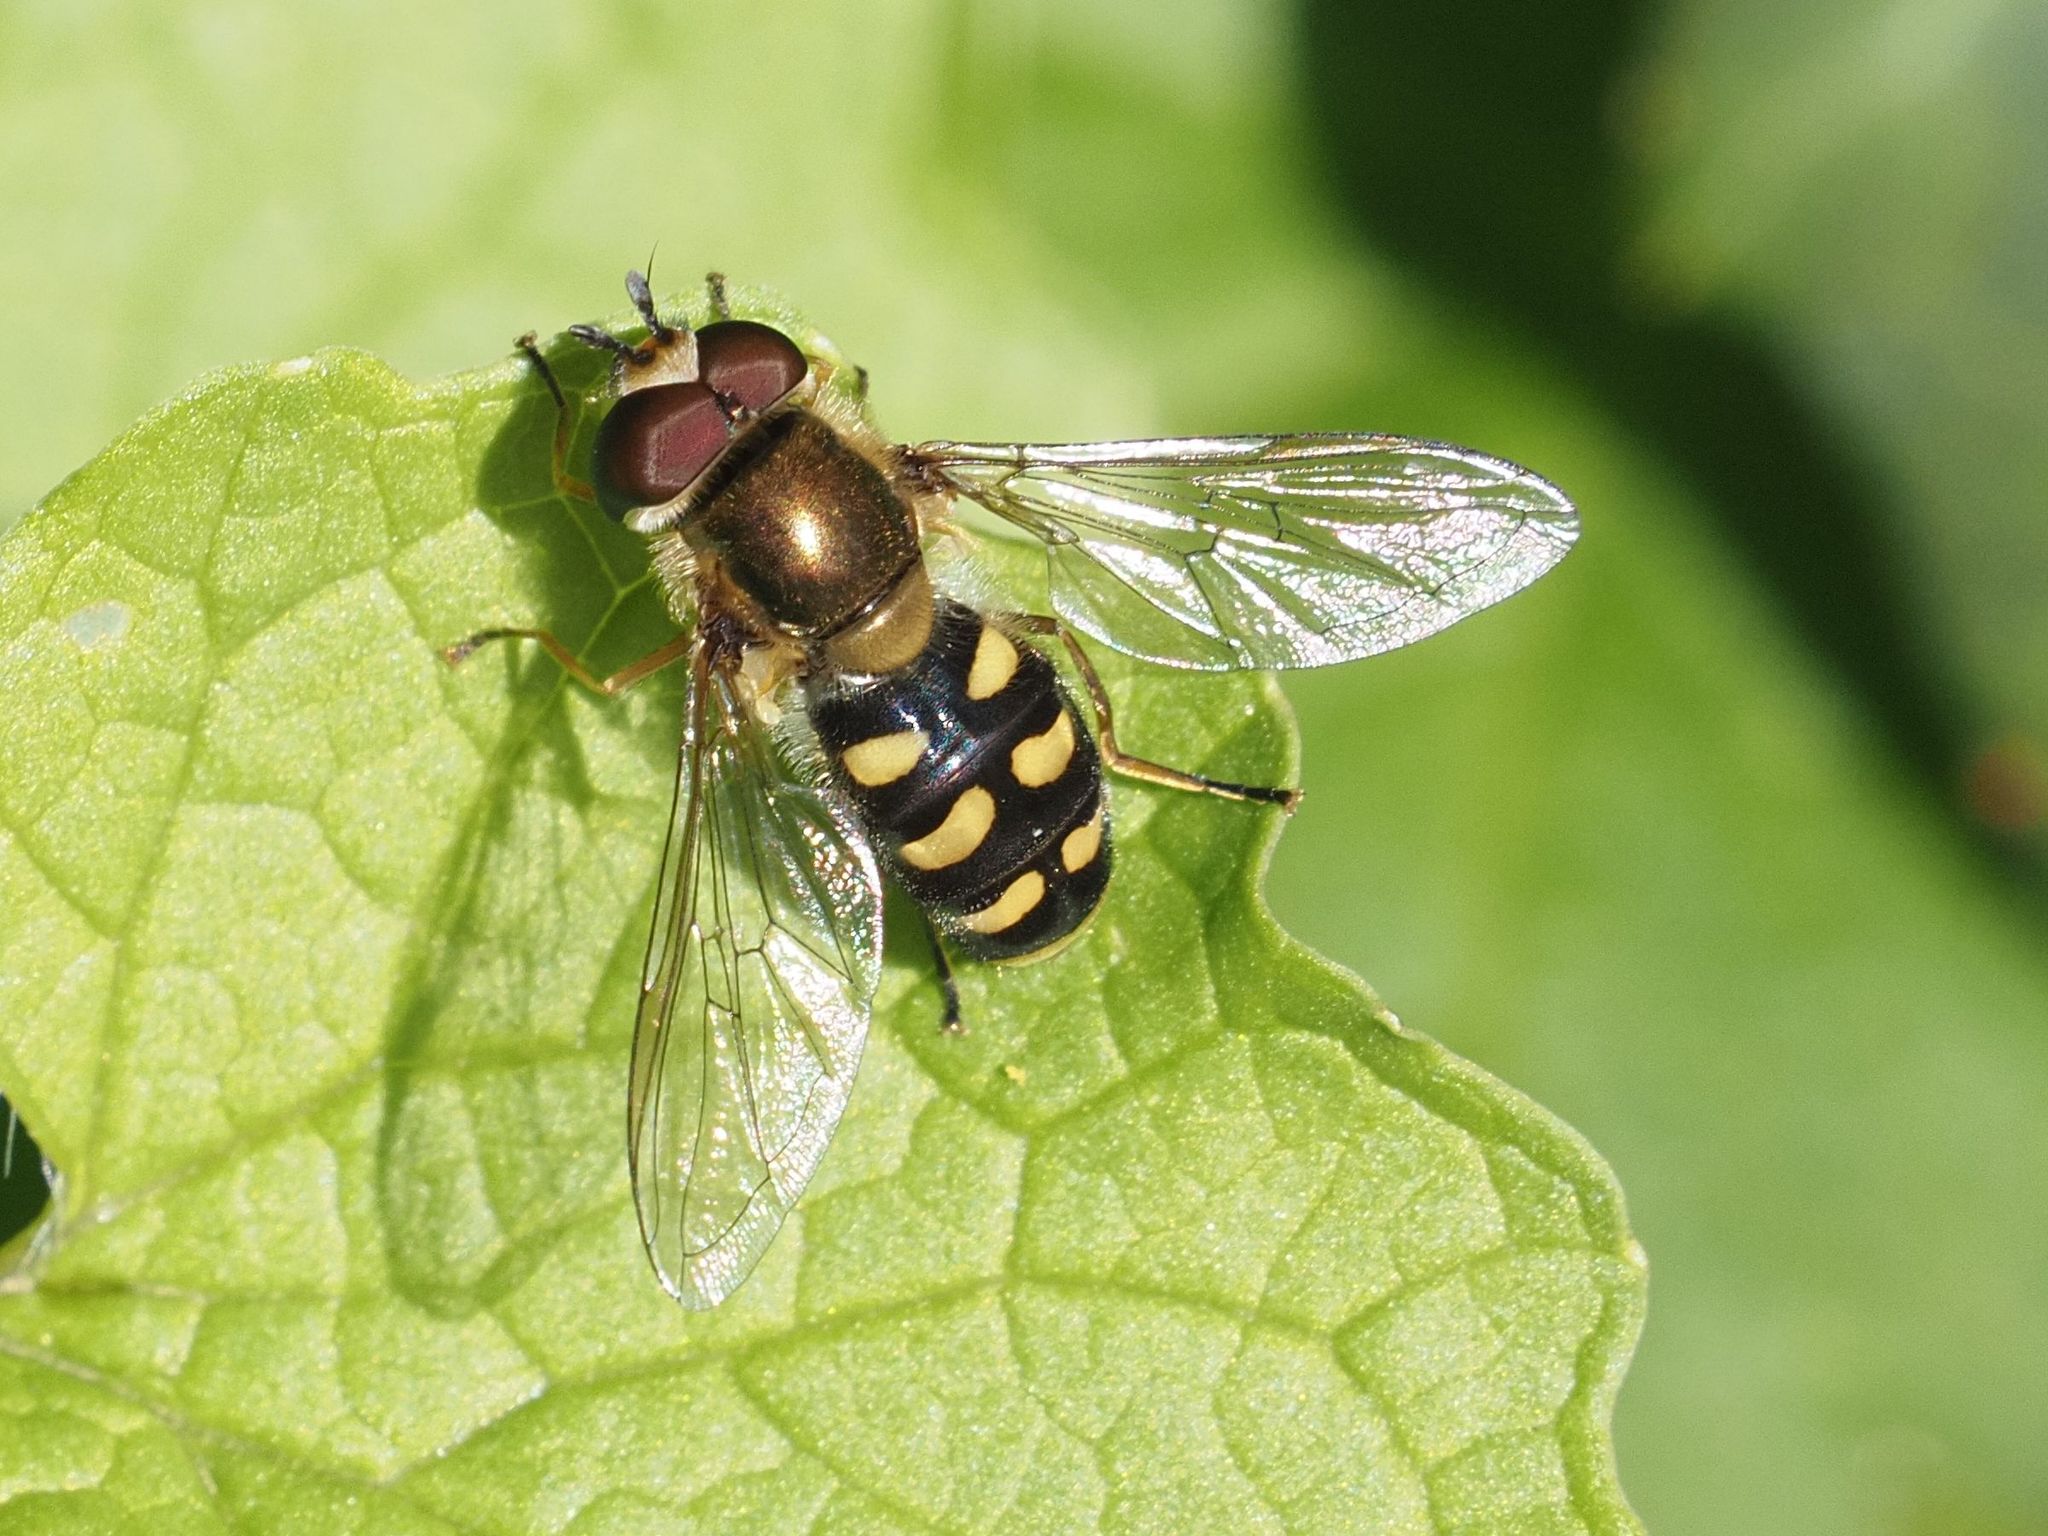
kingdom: Animalia
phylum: Arthropoda
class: Insecta
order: Diptera
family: Syrphidae
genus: Eupeodes
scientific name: Eupeodes luniger
